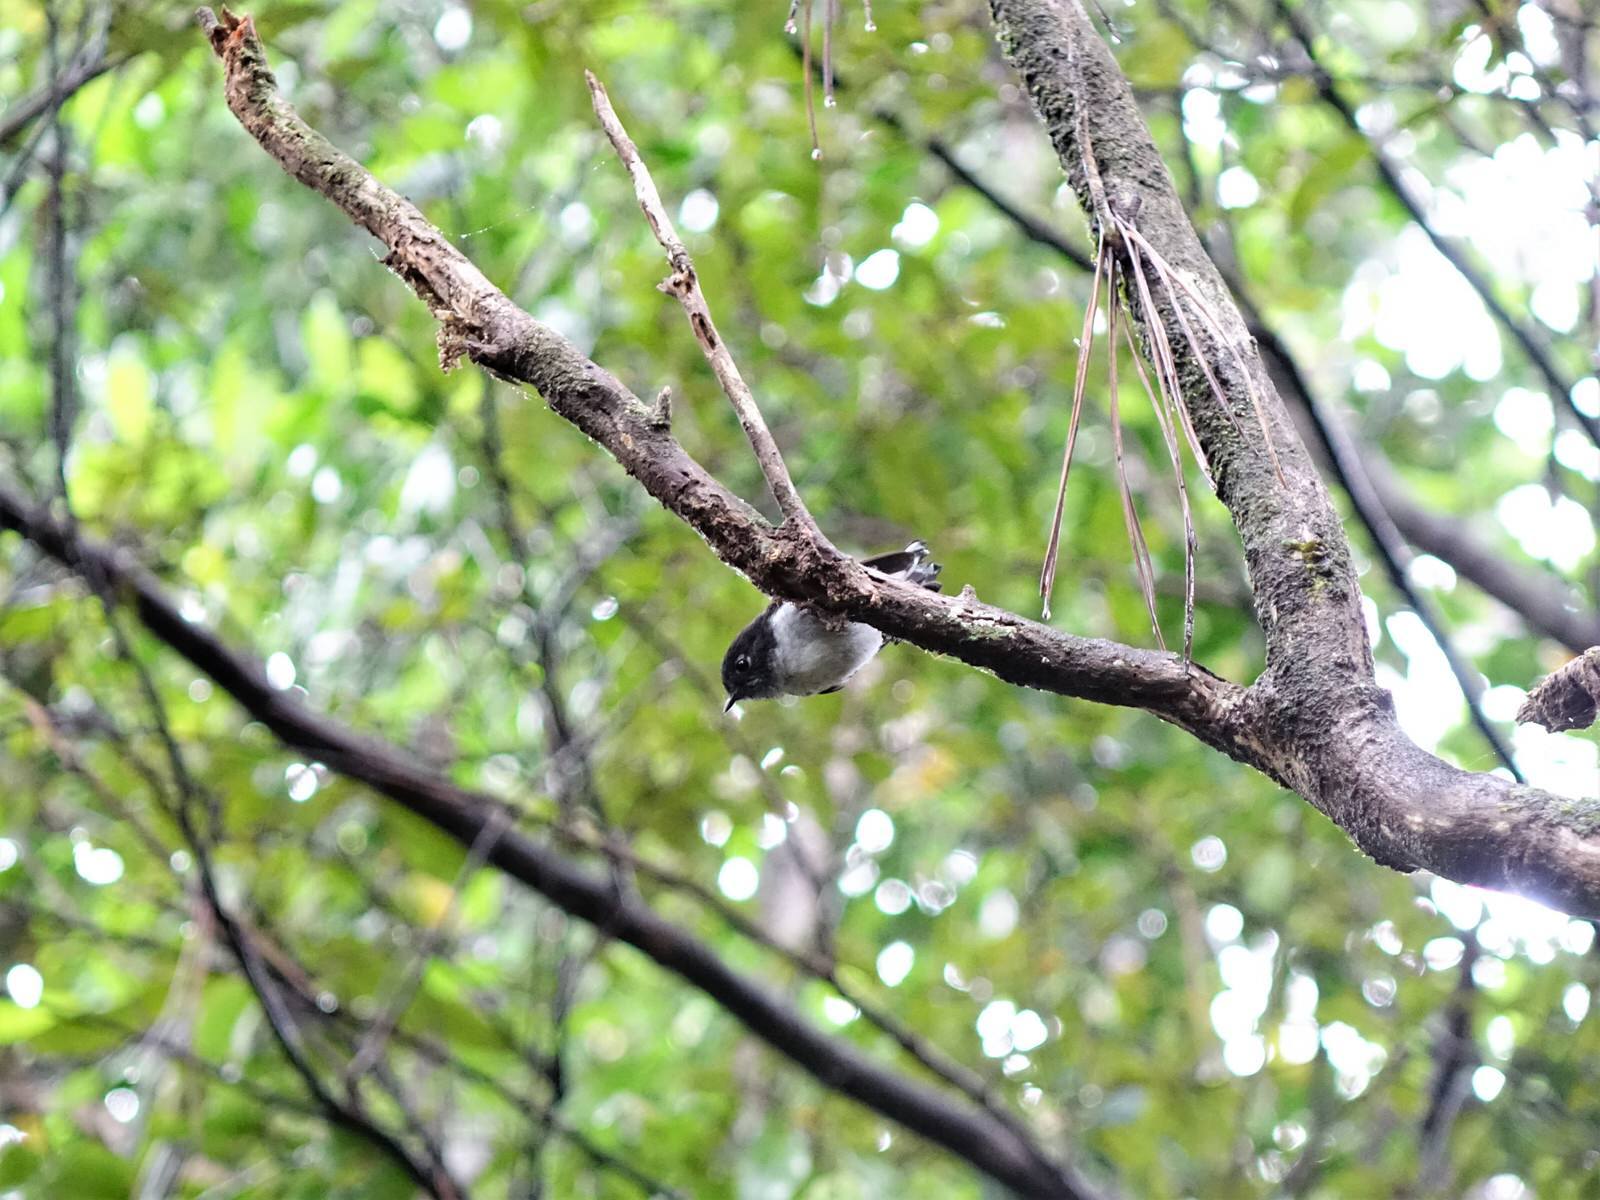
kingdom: Animalia
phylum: Chordata
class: Aves
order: Passeriformes
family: Petroicidae
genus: Petroica
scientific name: Petroica macrocephala
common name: Tomtit
